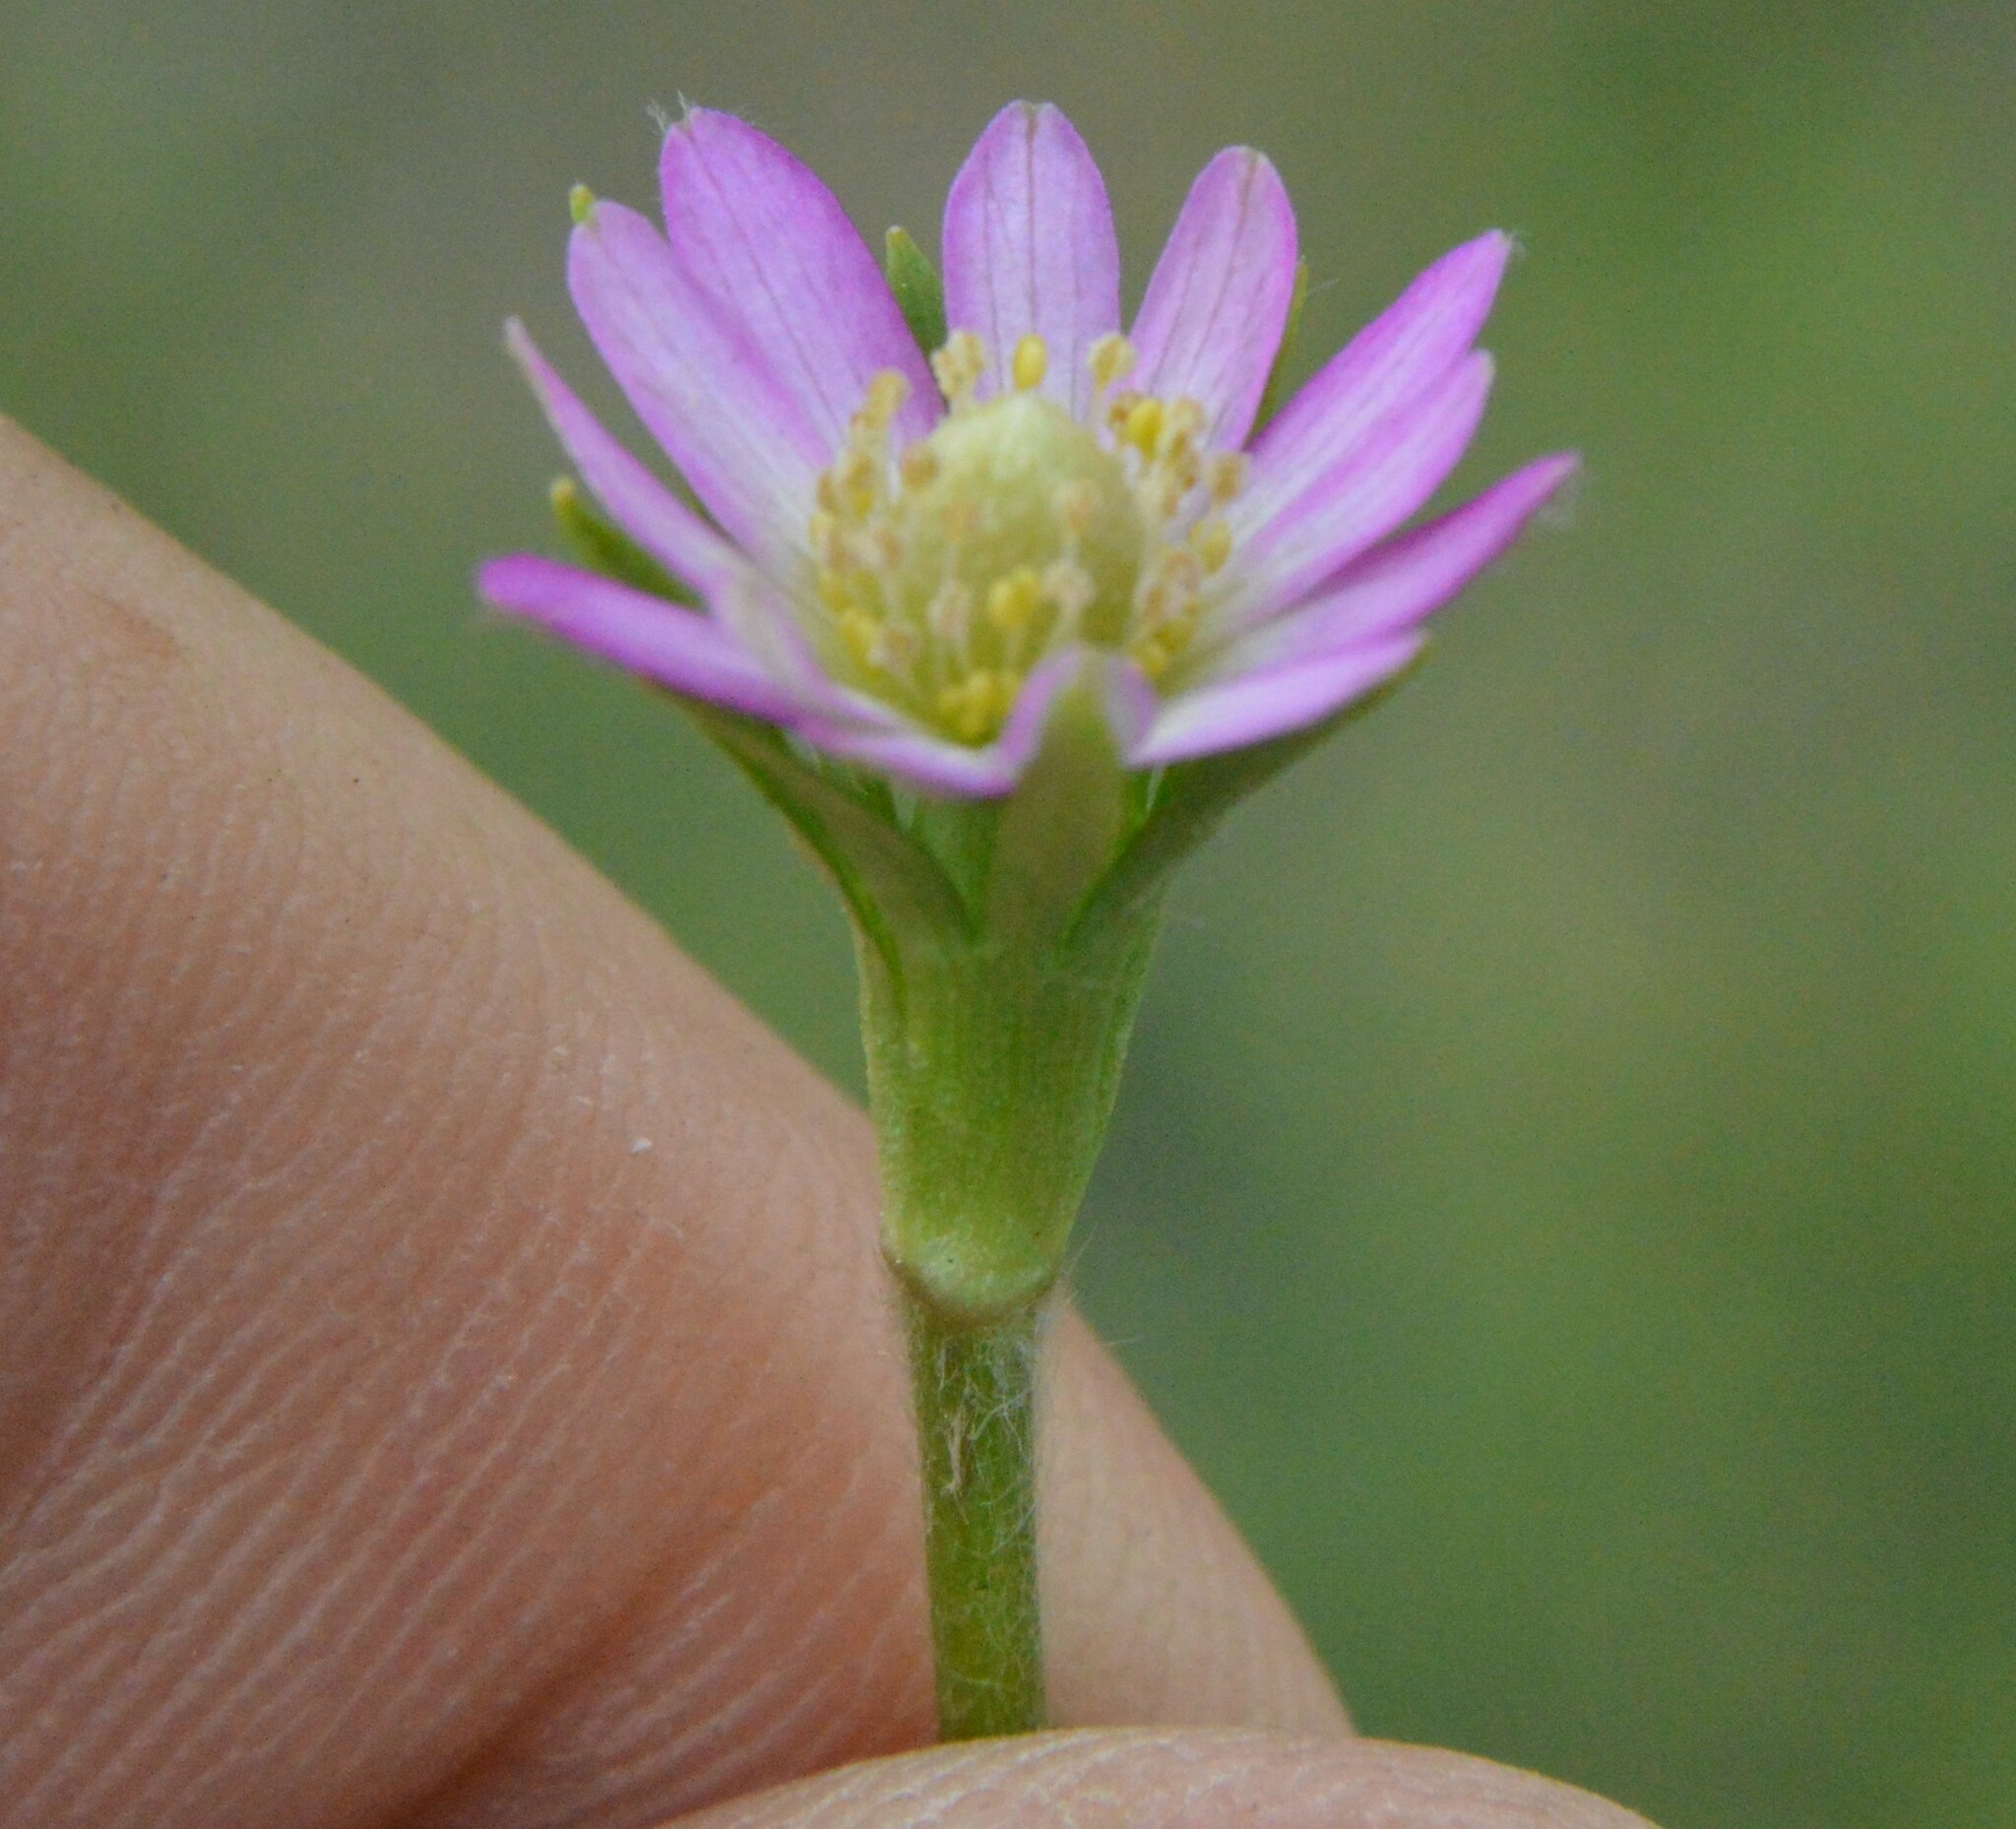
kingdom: Plantae
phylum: Tracheophyta
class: Magnoliopsida
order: Ranunculales
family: Ranunculaceae
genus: Anemone
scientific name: Anemone berlandieri
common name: Ten-petal anemone
